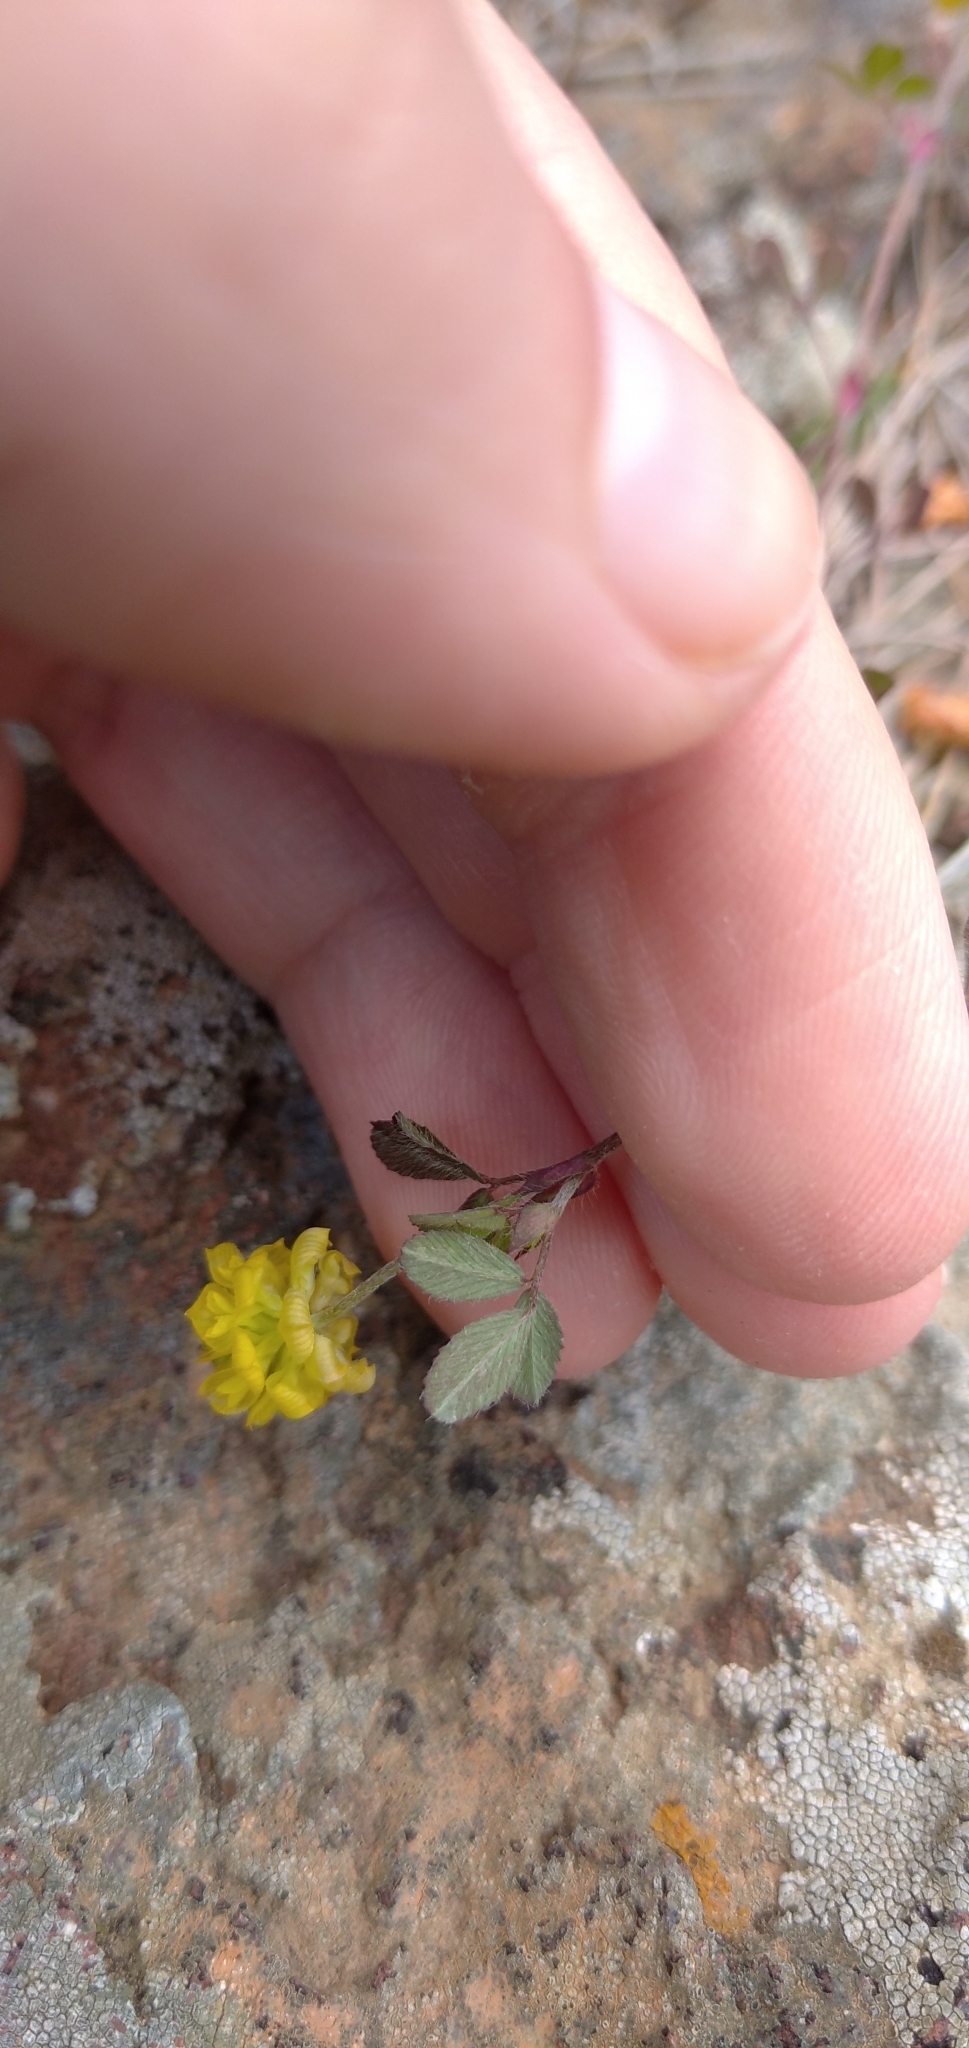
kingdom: Plantae
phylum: Tracheophyta
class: Magnoliopsida
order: Fabales
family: Fabaceae
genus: Trifolium
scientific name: Trifolium campestre
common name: Field clover
